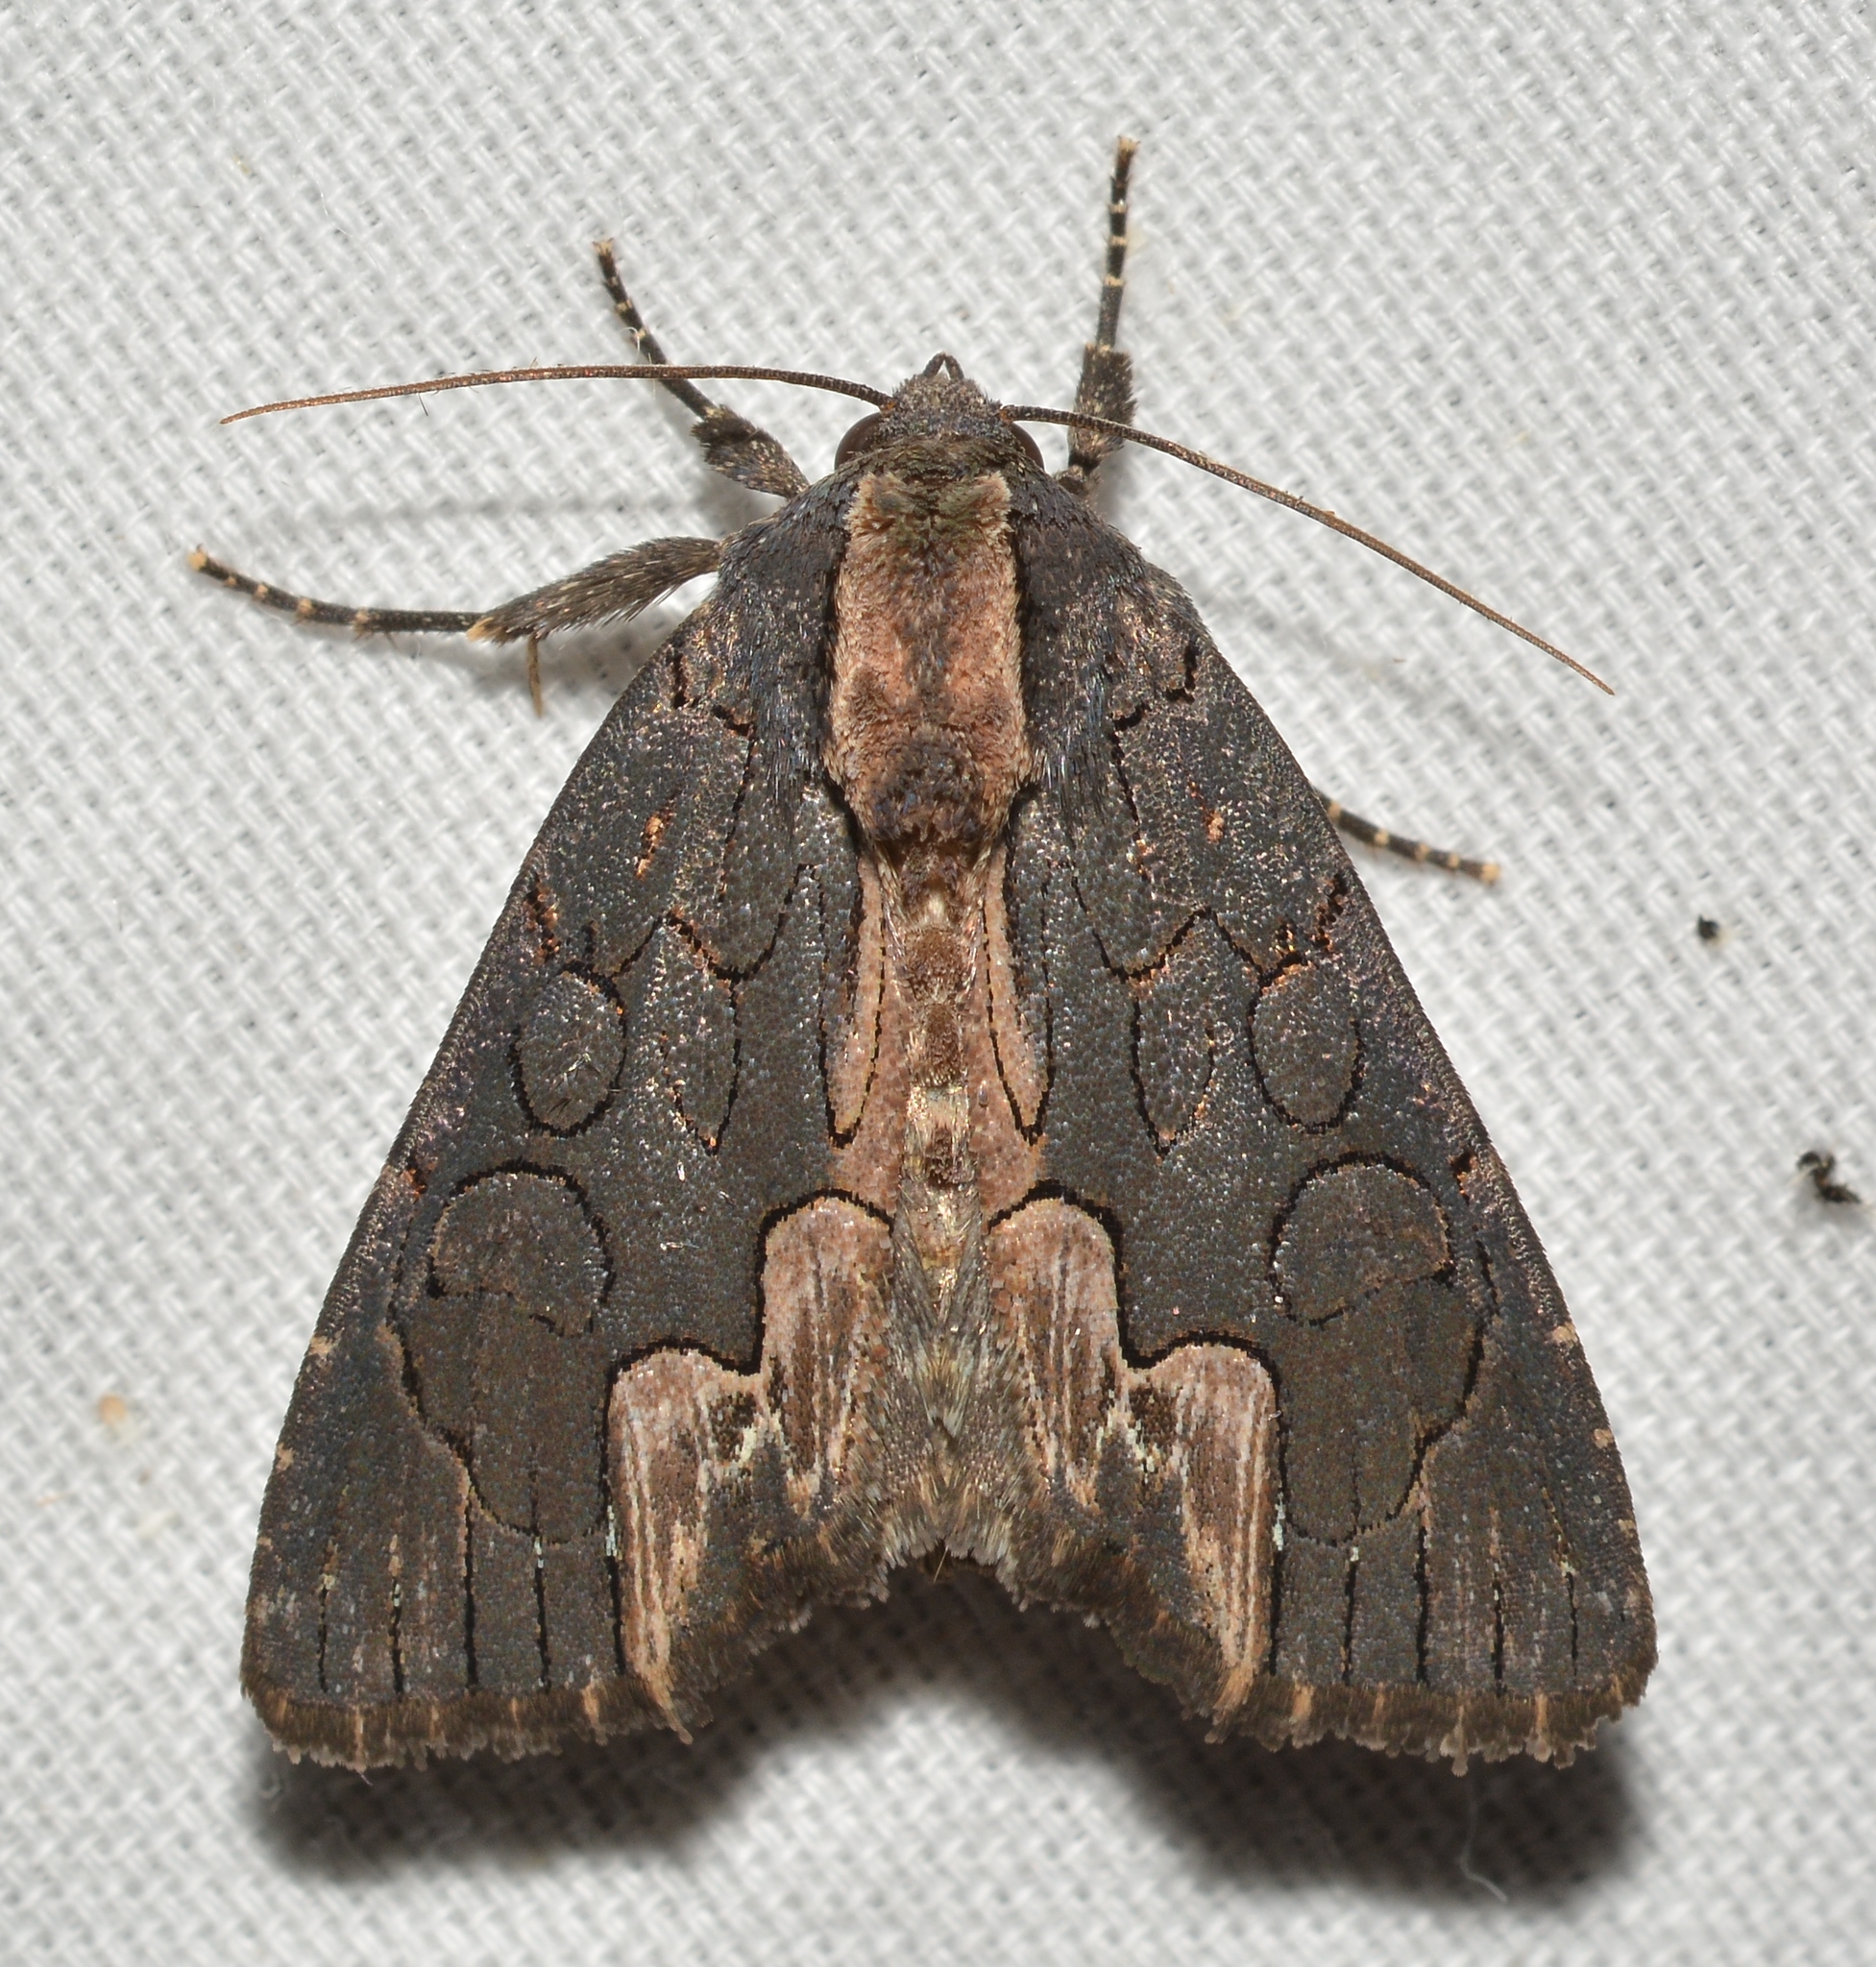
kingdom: Animalia
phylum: Arthropoda
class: Insecta
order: Lepidoptera
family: Noctuidae
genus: Dypterygia
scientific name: Dypterygia rozmani
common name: American bird's-wing
